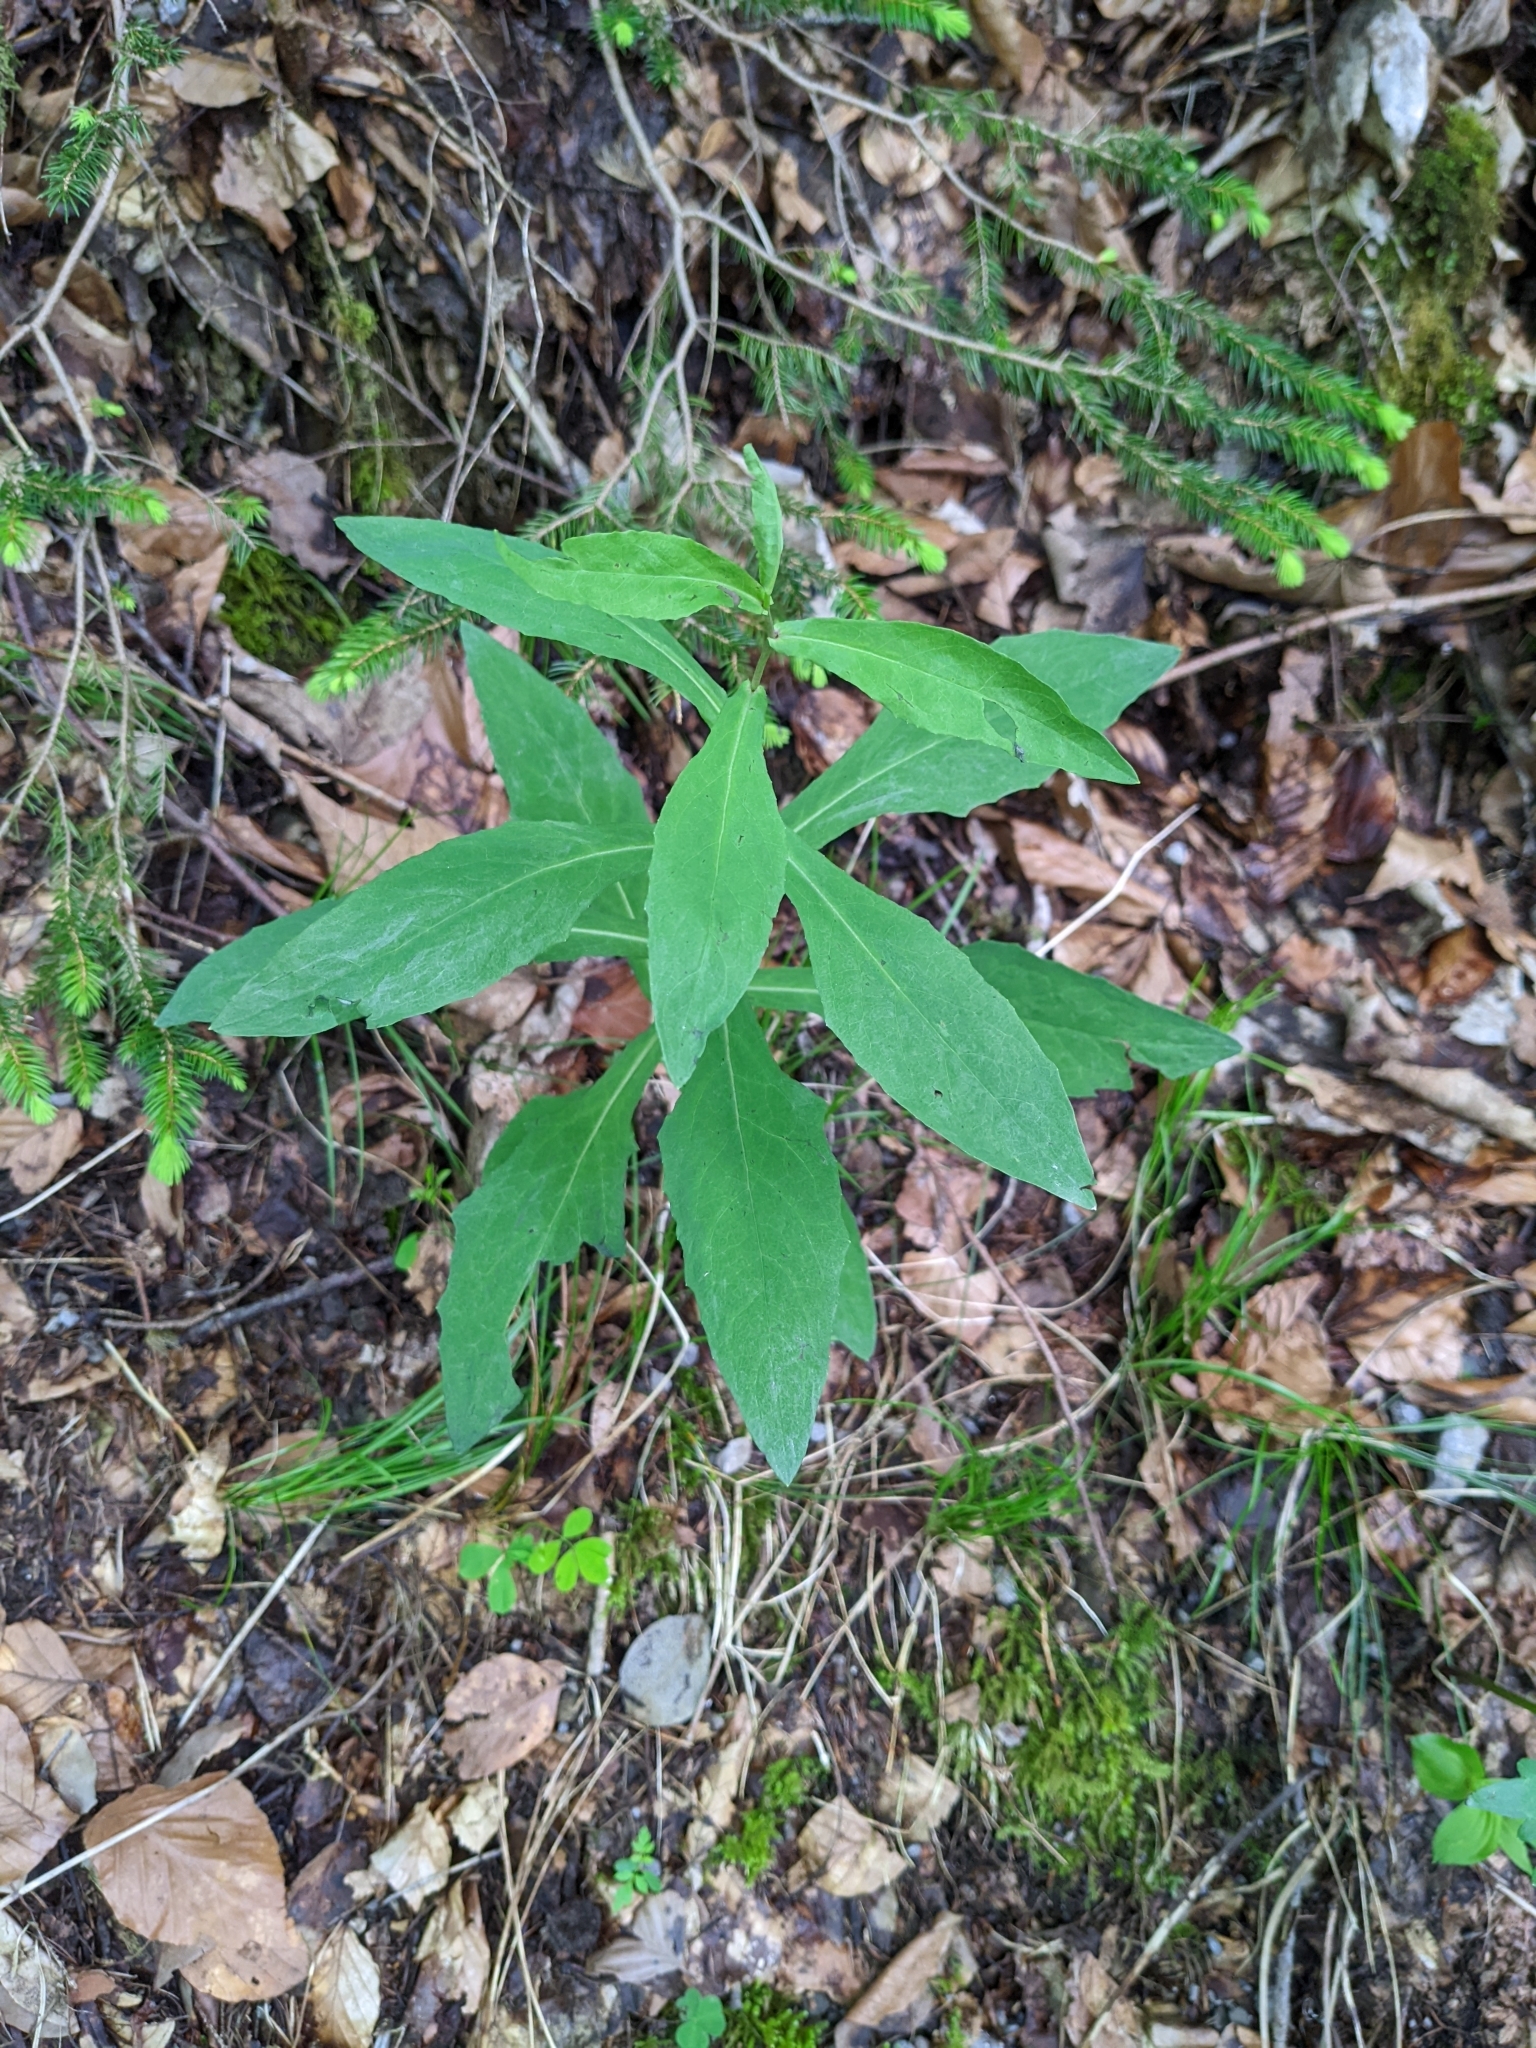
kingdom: Plantae
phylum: Tracheophyta
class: Magnoliopsida
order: Asterales
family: Asteraceae
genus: Prenanthes
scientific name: Prenanthes purpurea
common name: Purple lettuce
